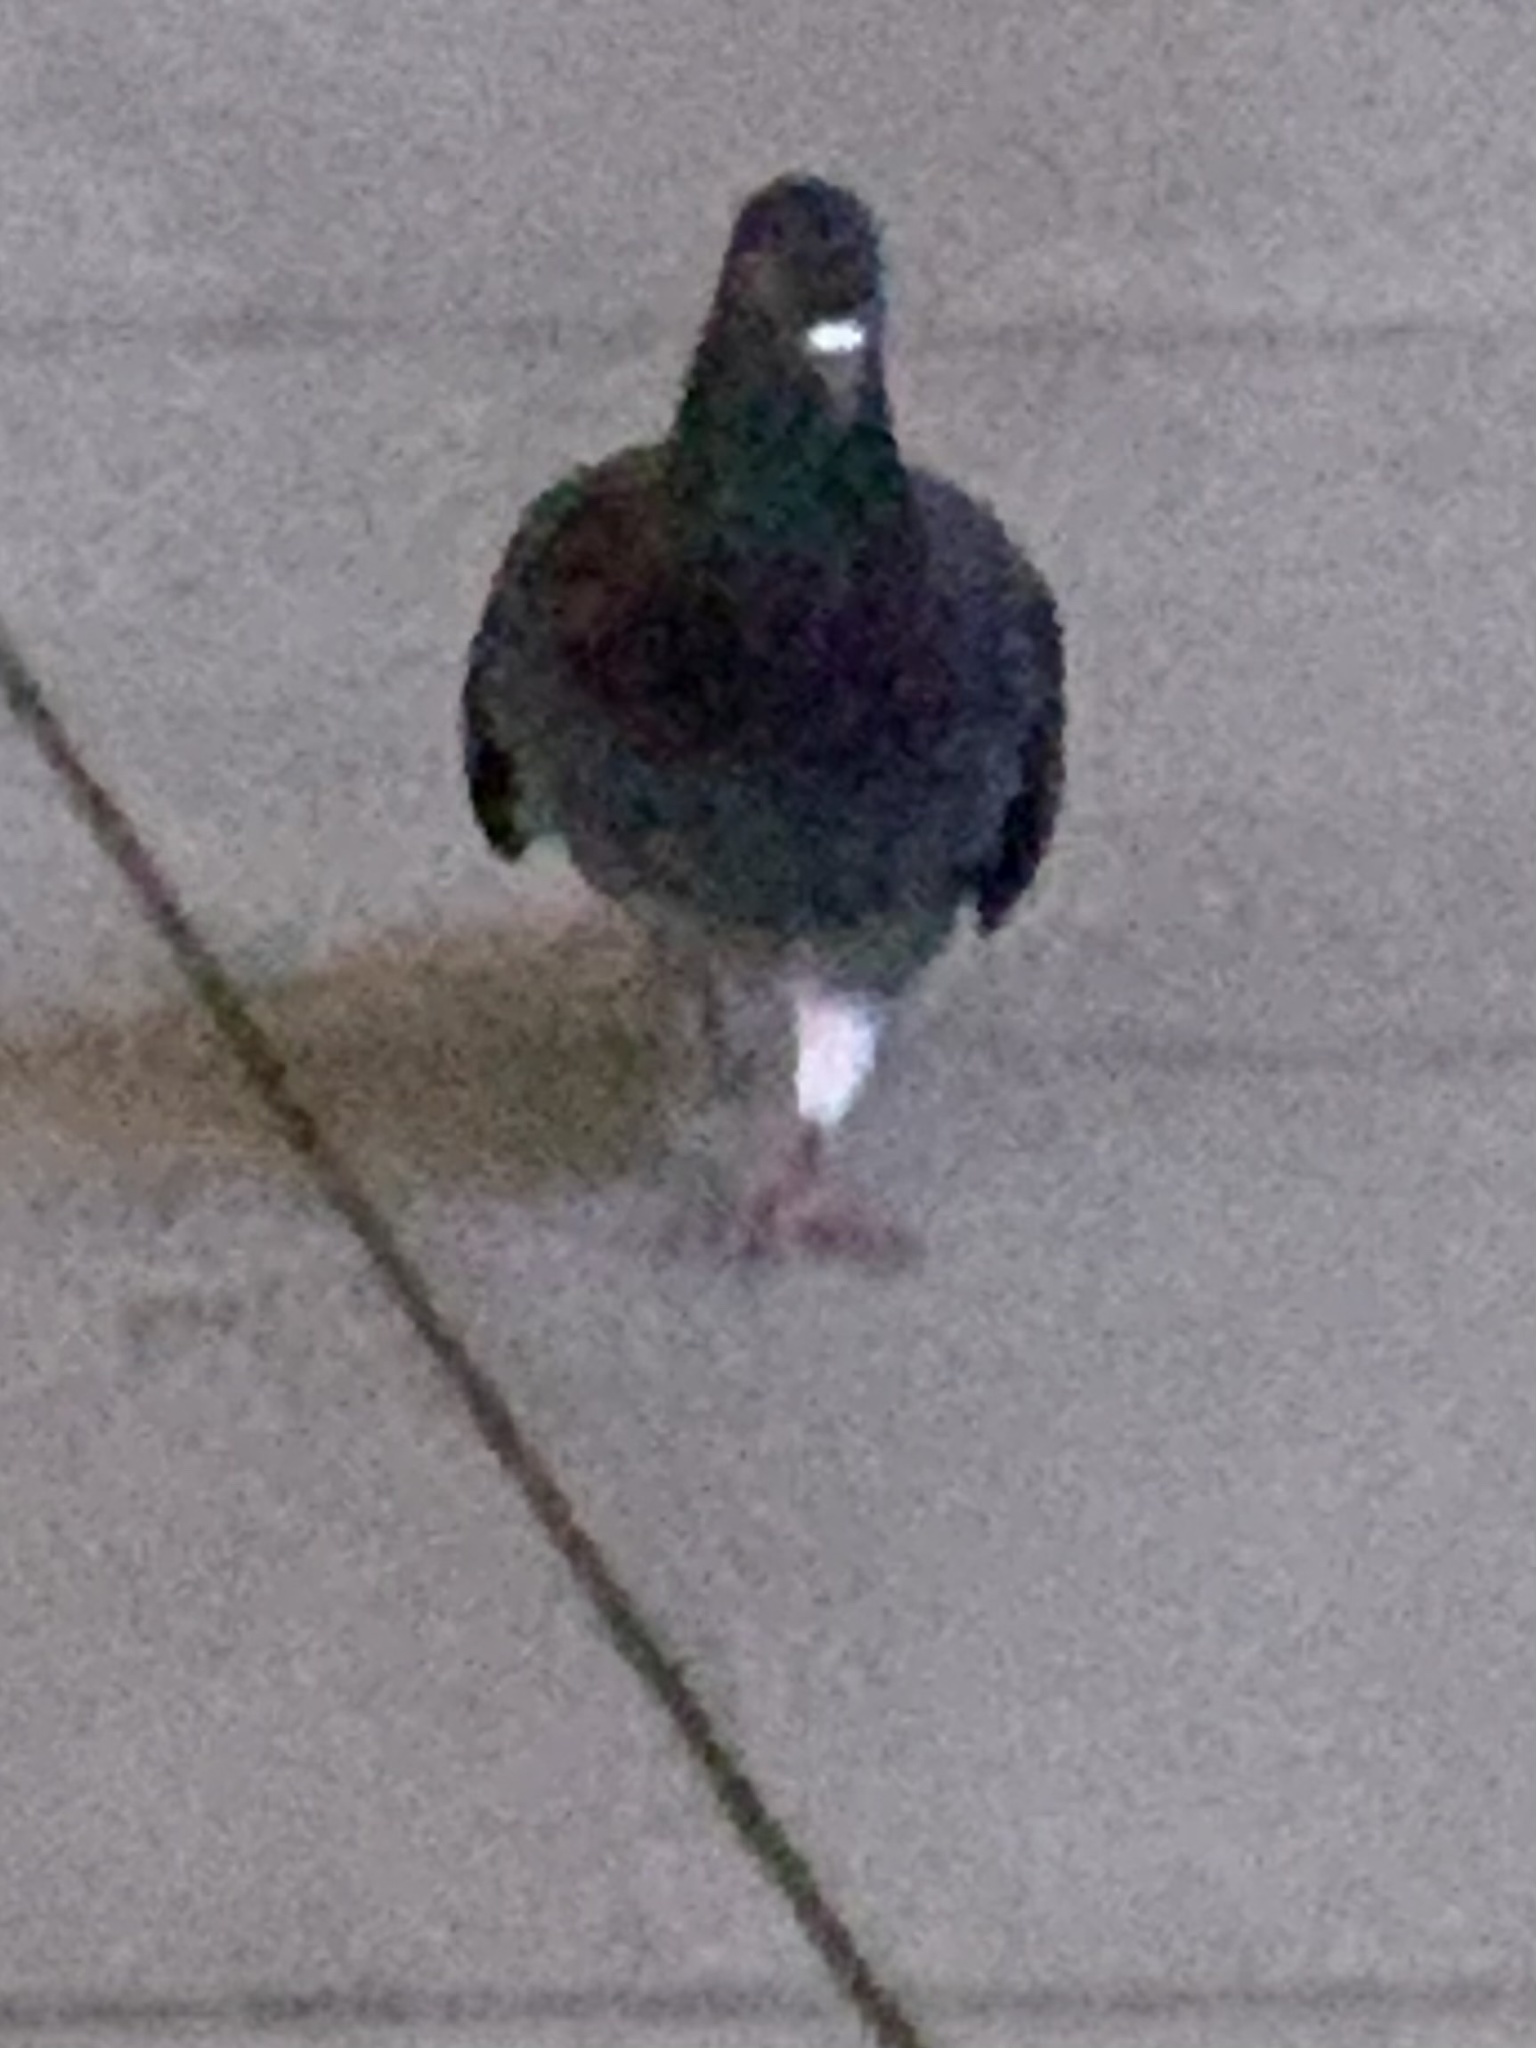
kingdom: Animalia
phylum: Chordata
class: Aves
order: Columbiformes
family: Columbidae
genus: Columba
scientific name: Columba livia
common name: Rock pigeon
